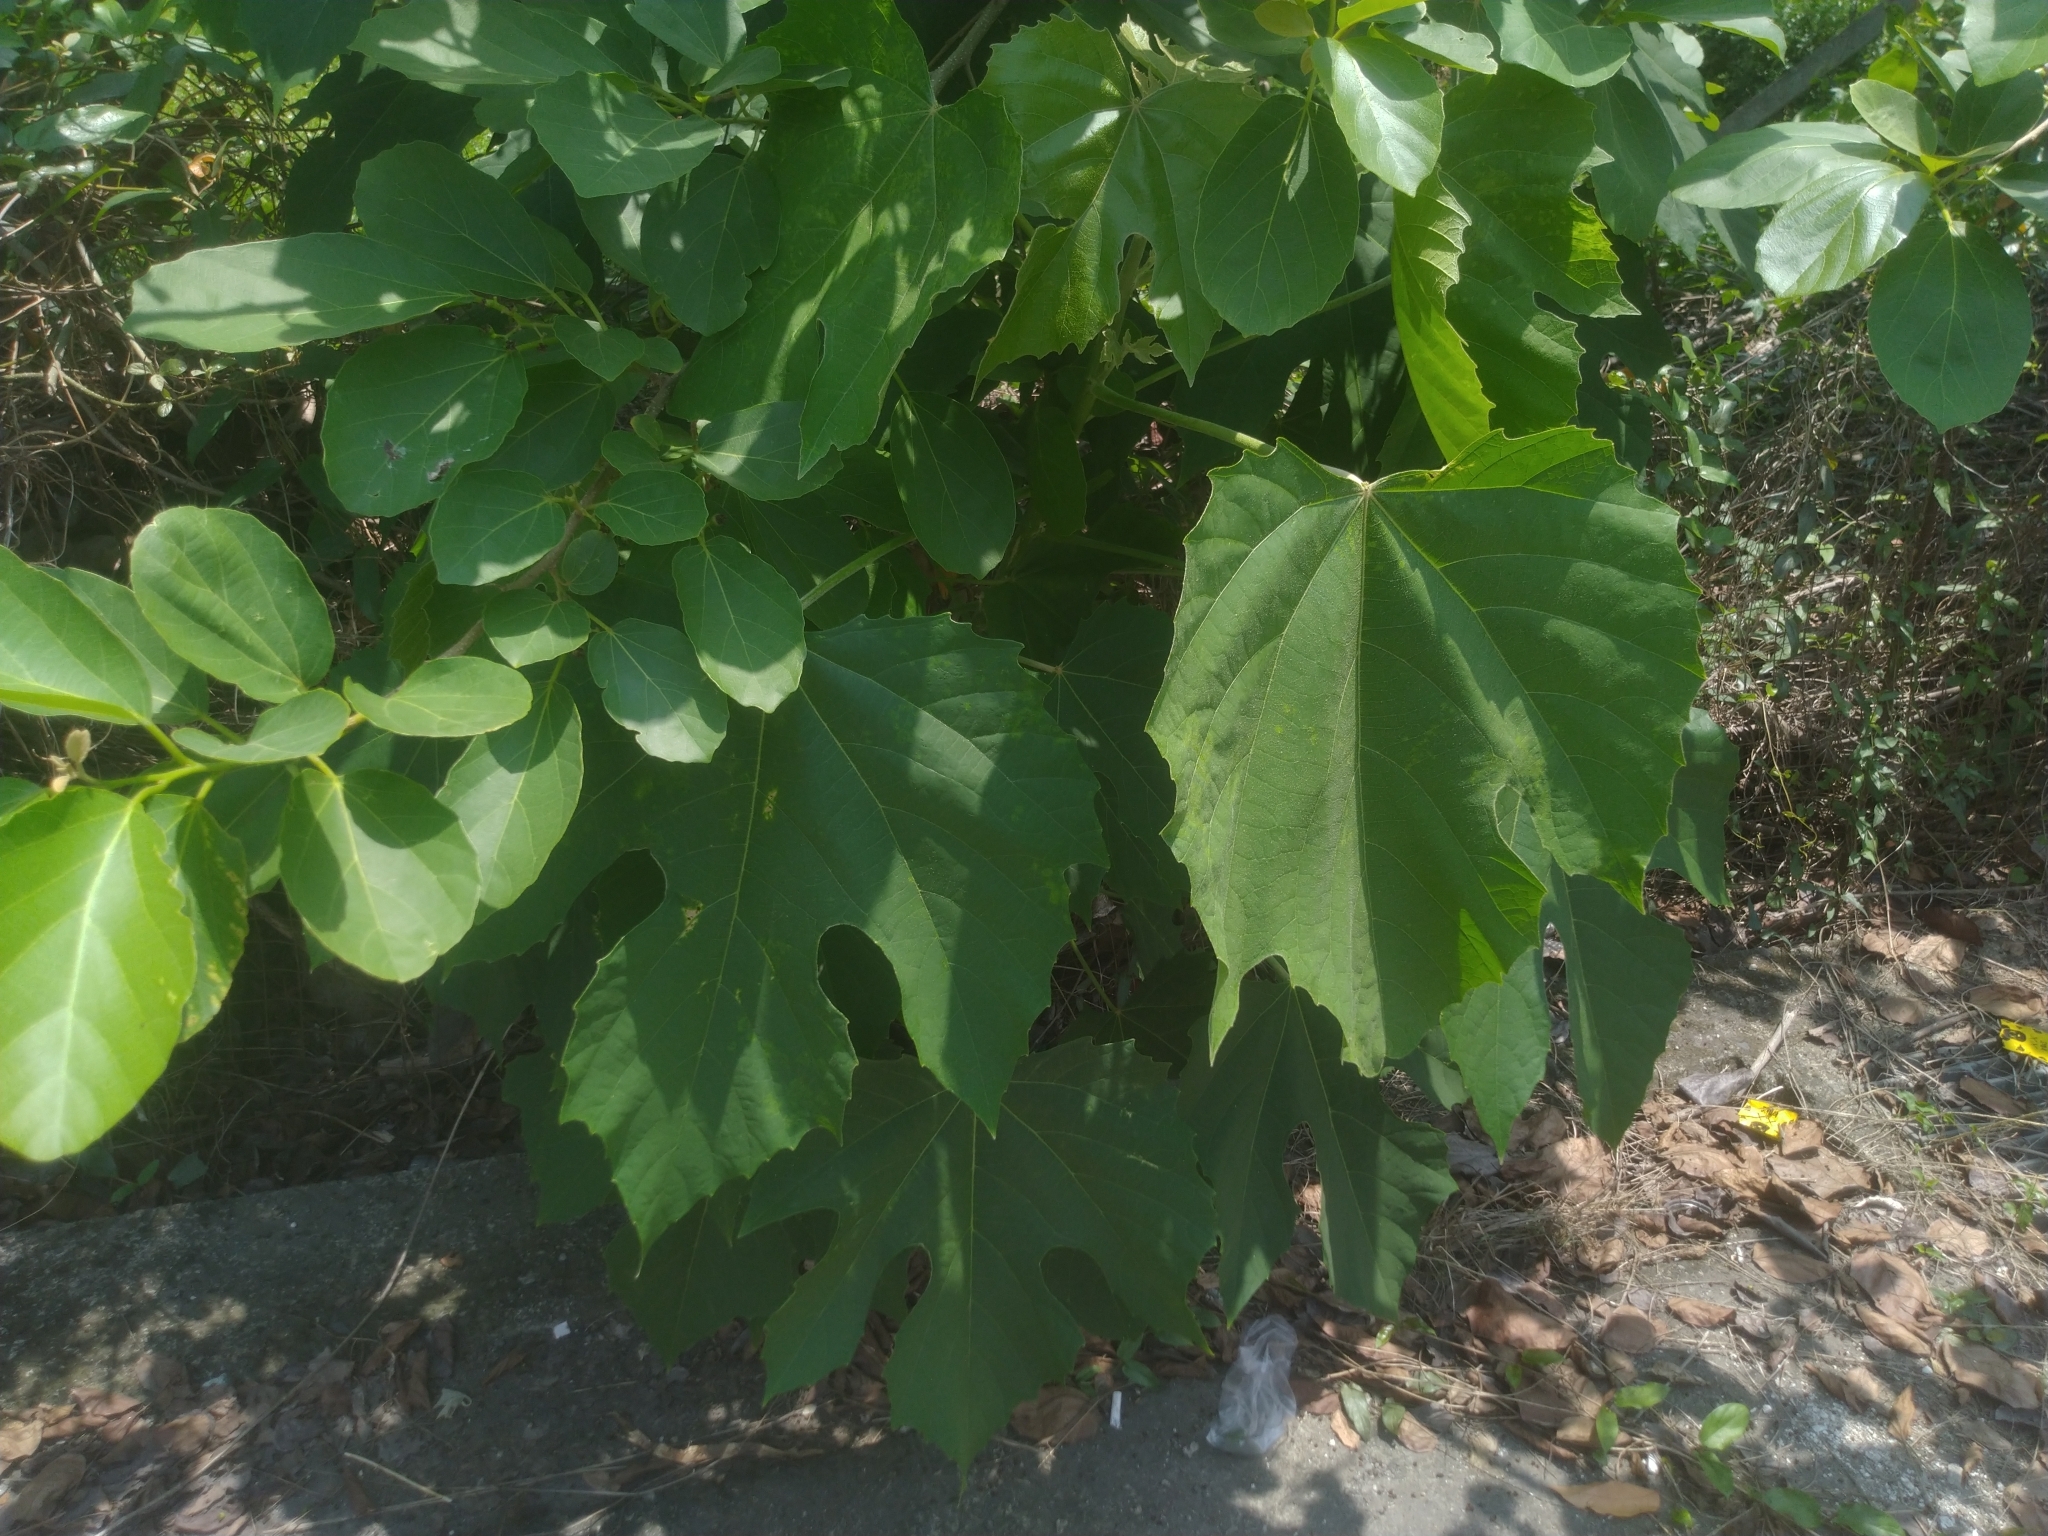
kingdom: Plantae
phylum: Tracheophyta
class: Magnoliopsida
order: Malpighiales
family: Euphorbiaceae
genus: Melanolepis
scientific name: Melanolepis multiglandulosa
